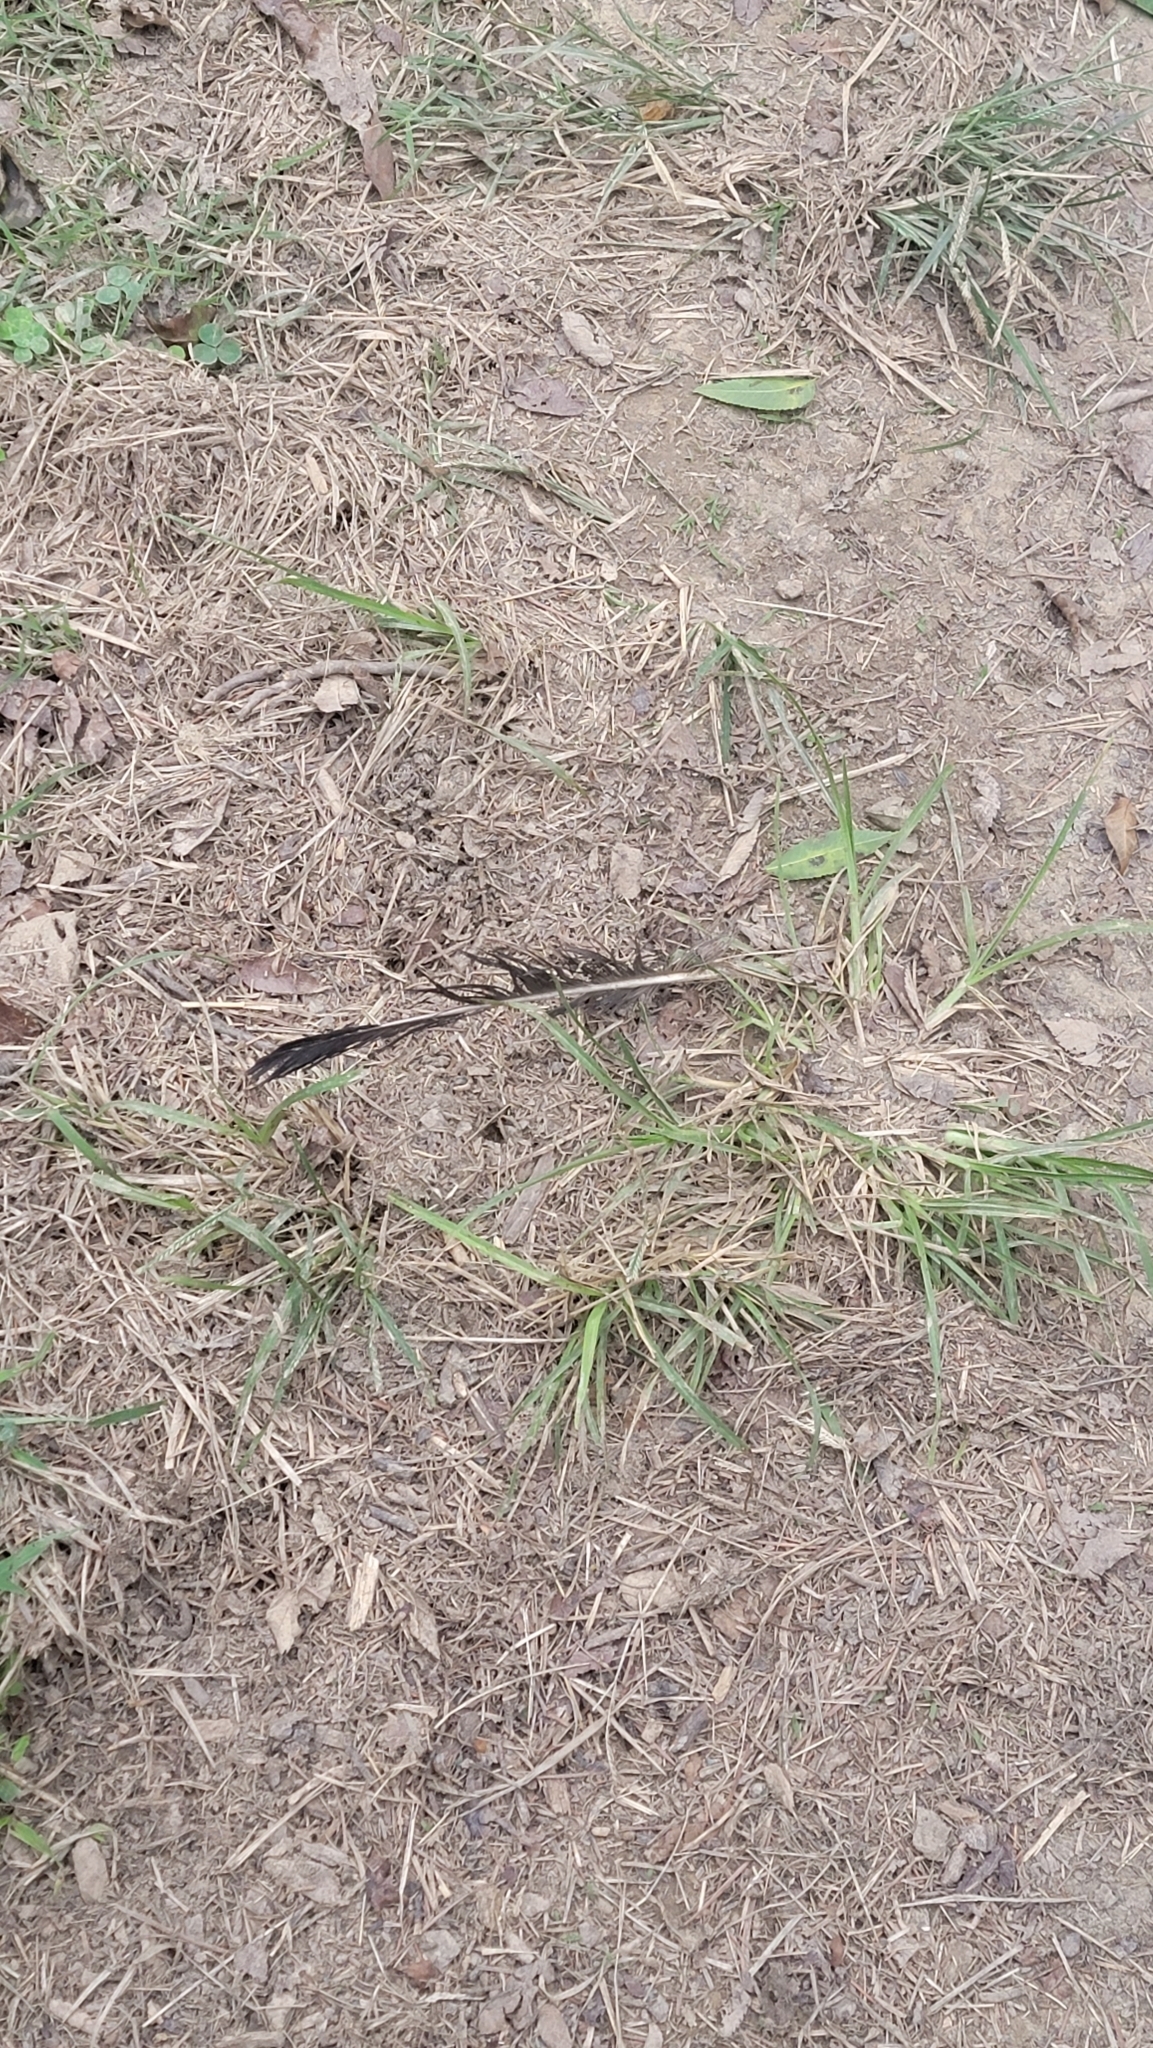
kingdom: Animalia
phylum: Chordata
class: Aves
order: Accipitriformes
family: Cathartidae
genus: Coragyps
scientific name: Coragyps atratus
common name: Black vulture
